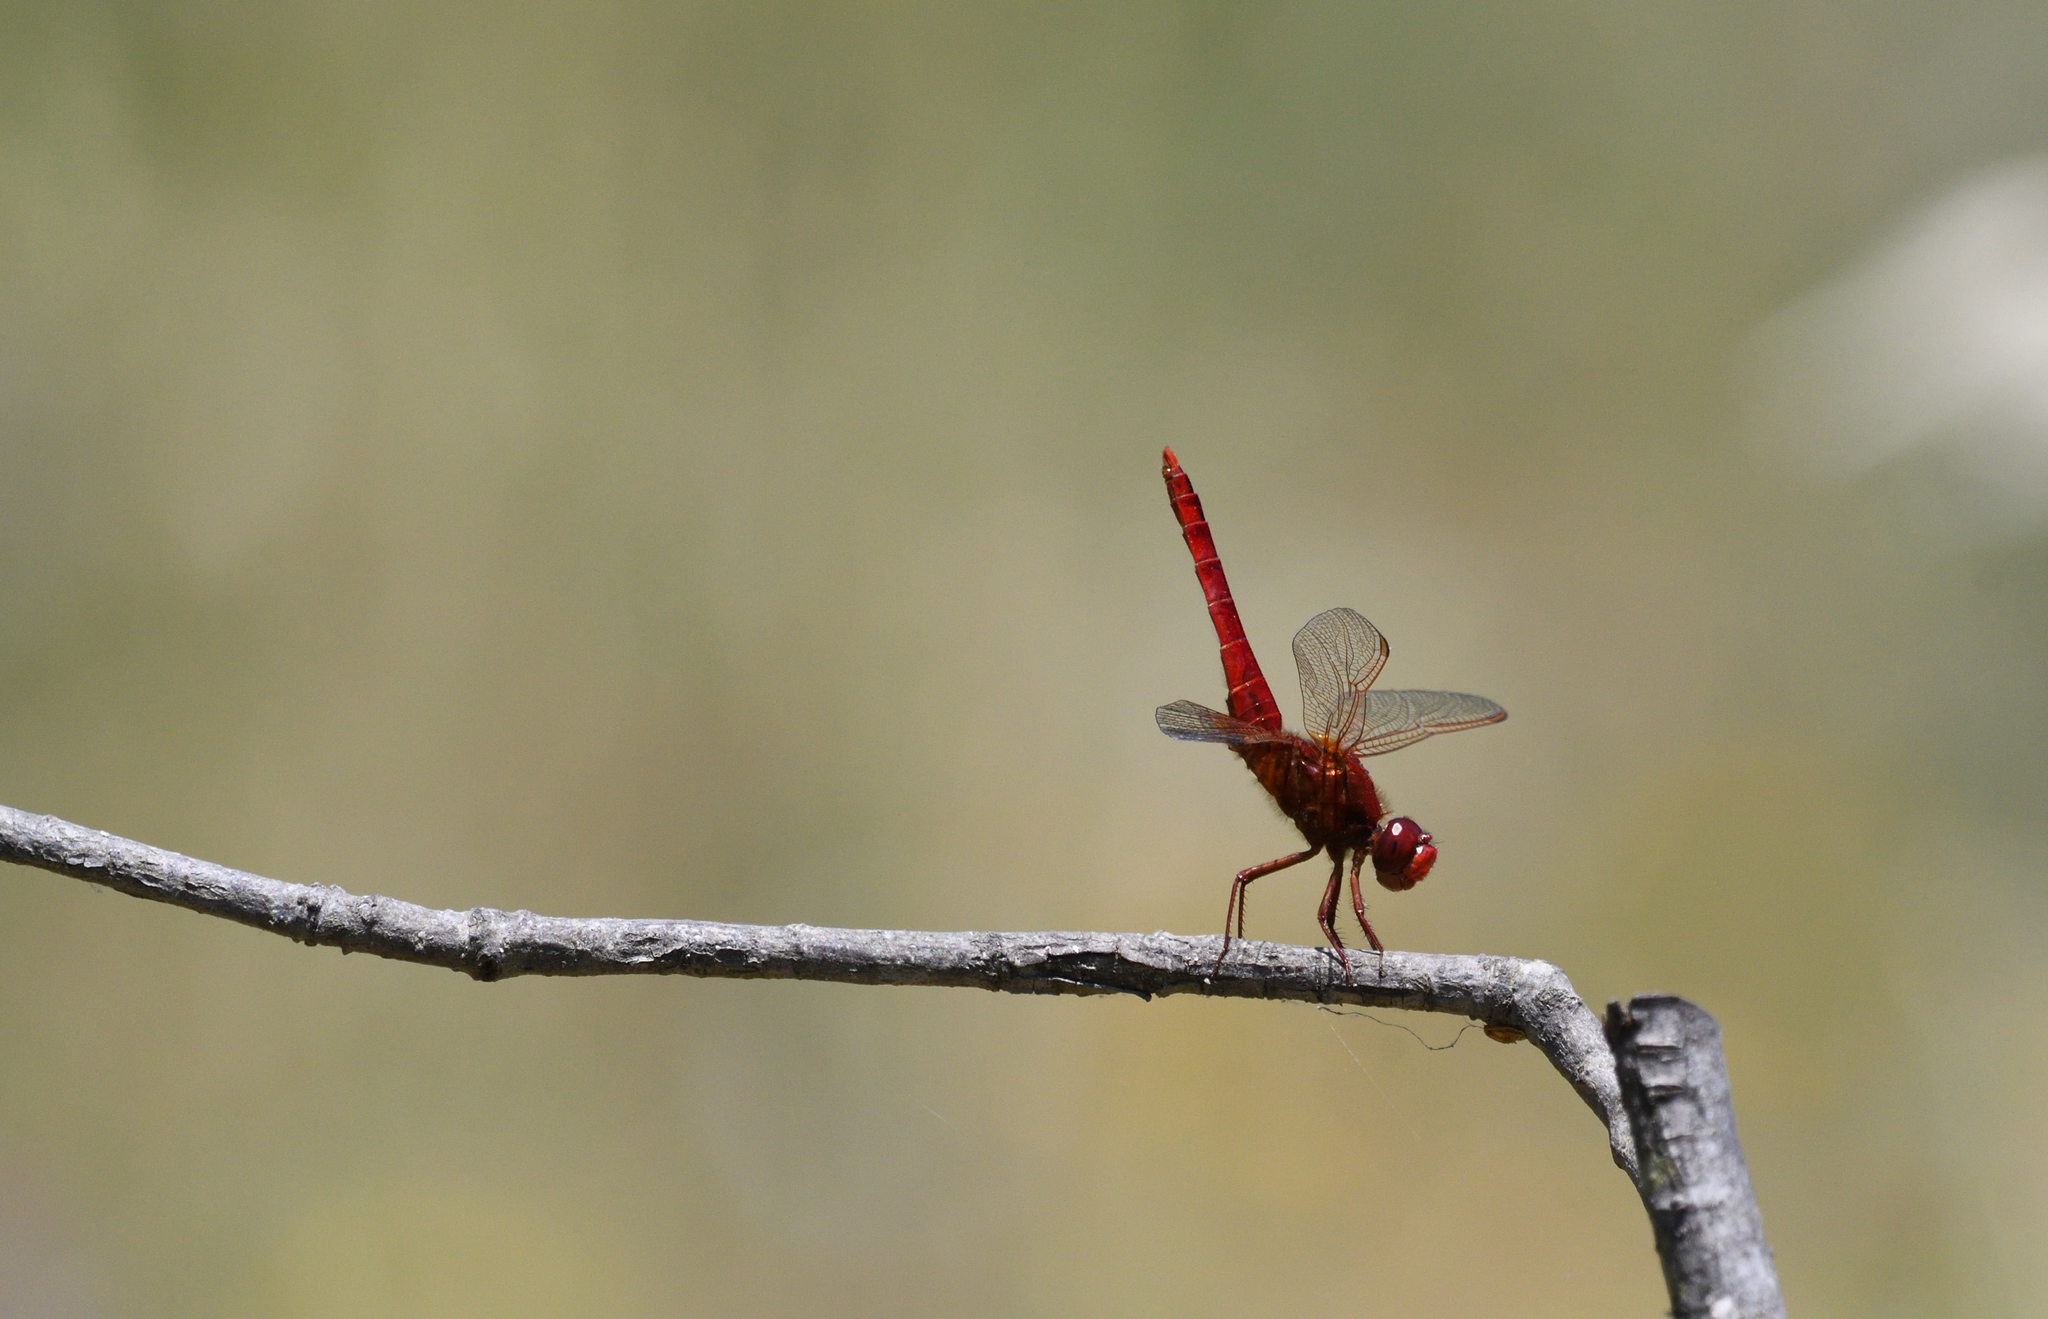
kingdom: Animalia
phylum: Arthropoda
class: Insecta
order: Odonata
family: Libellulidae
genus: Crocothemis
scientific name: Crocothemis erythraea
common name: Scarlet dragonfly
